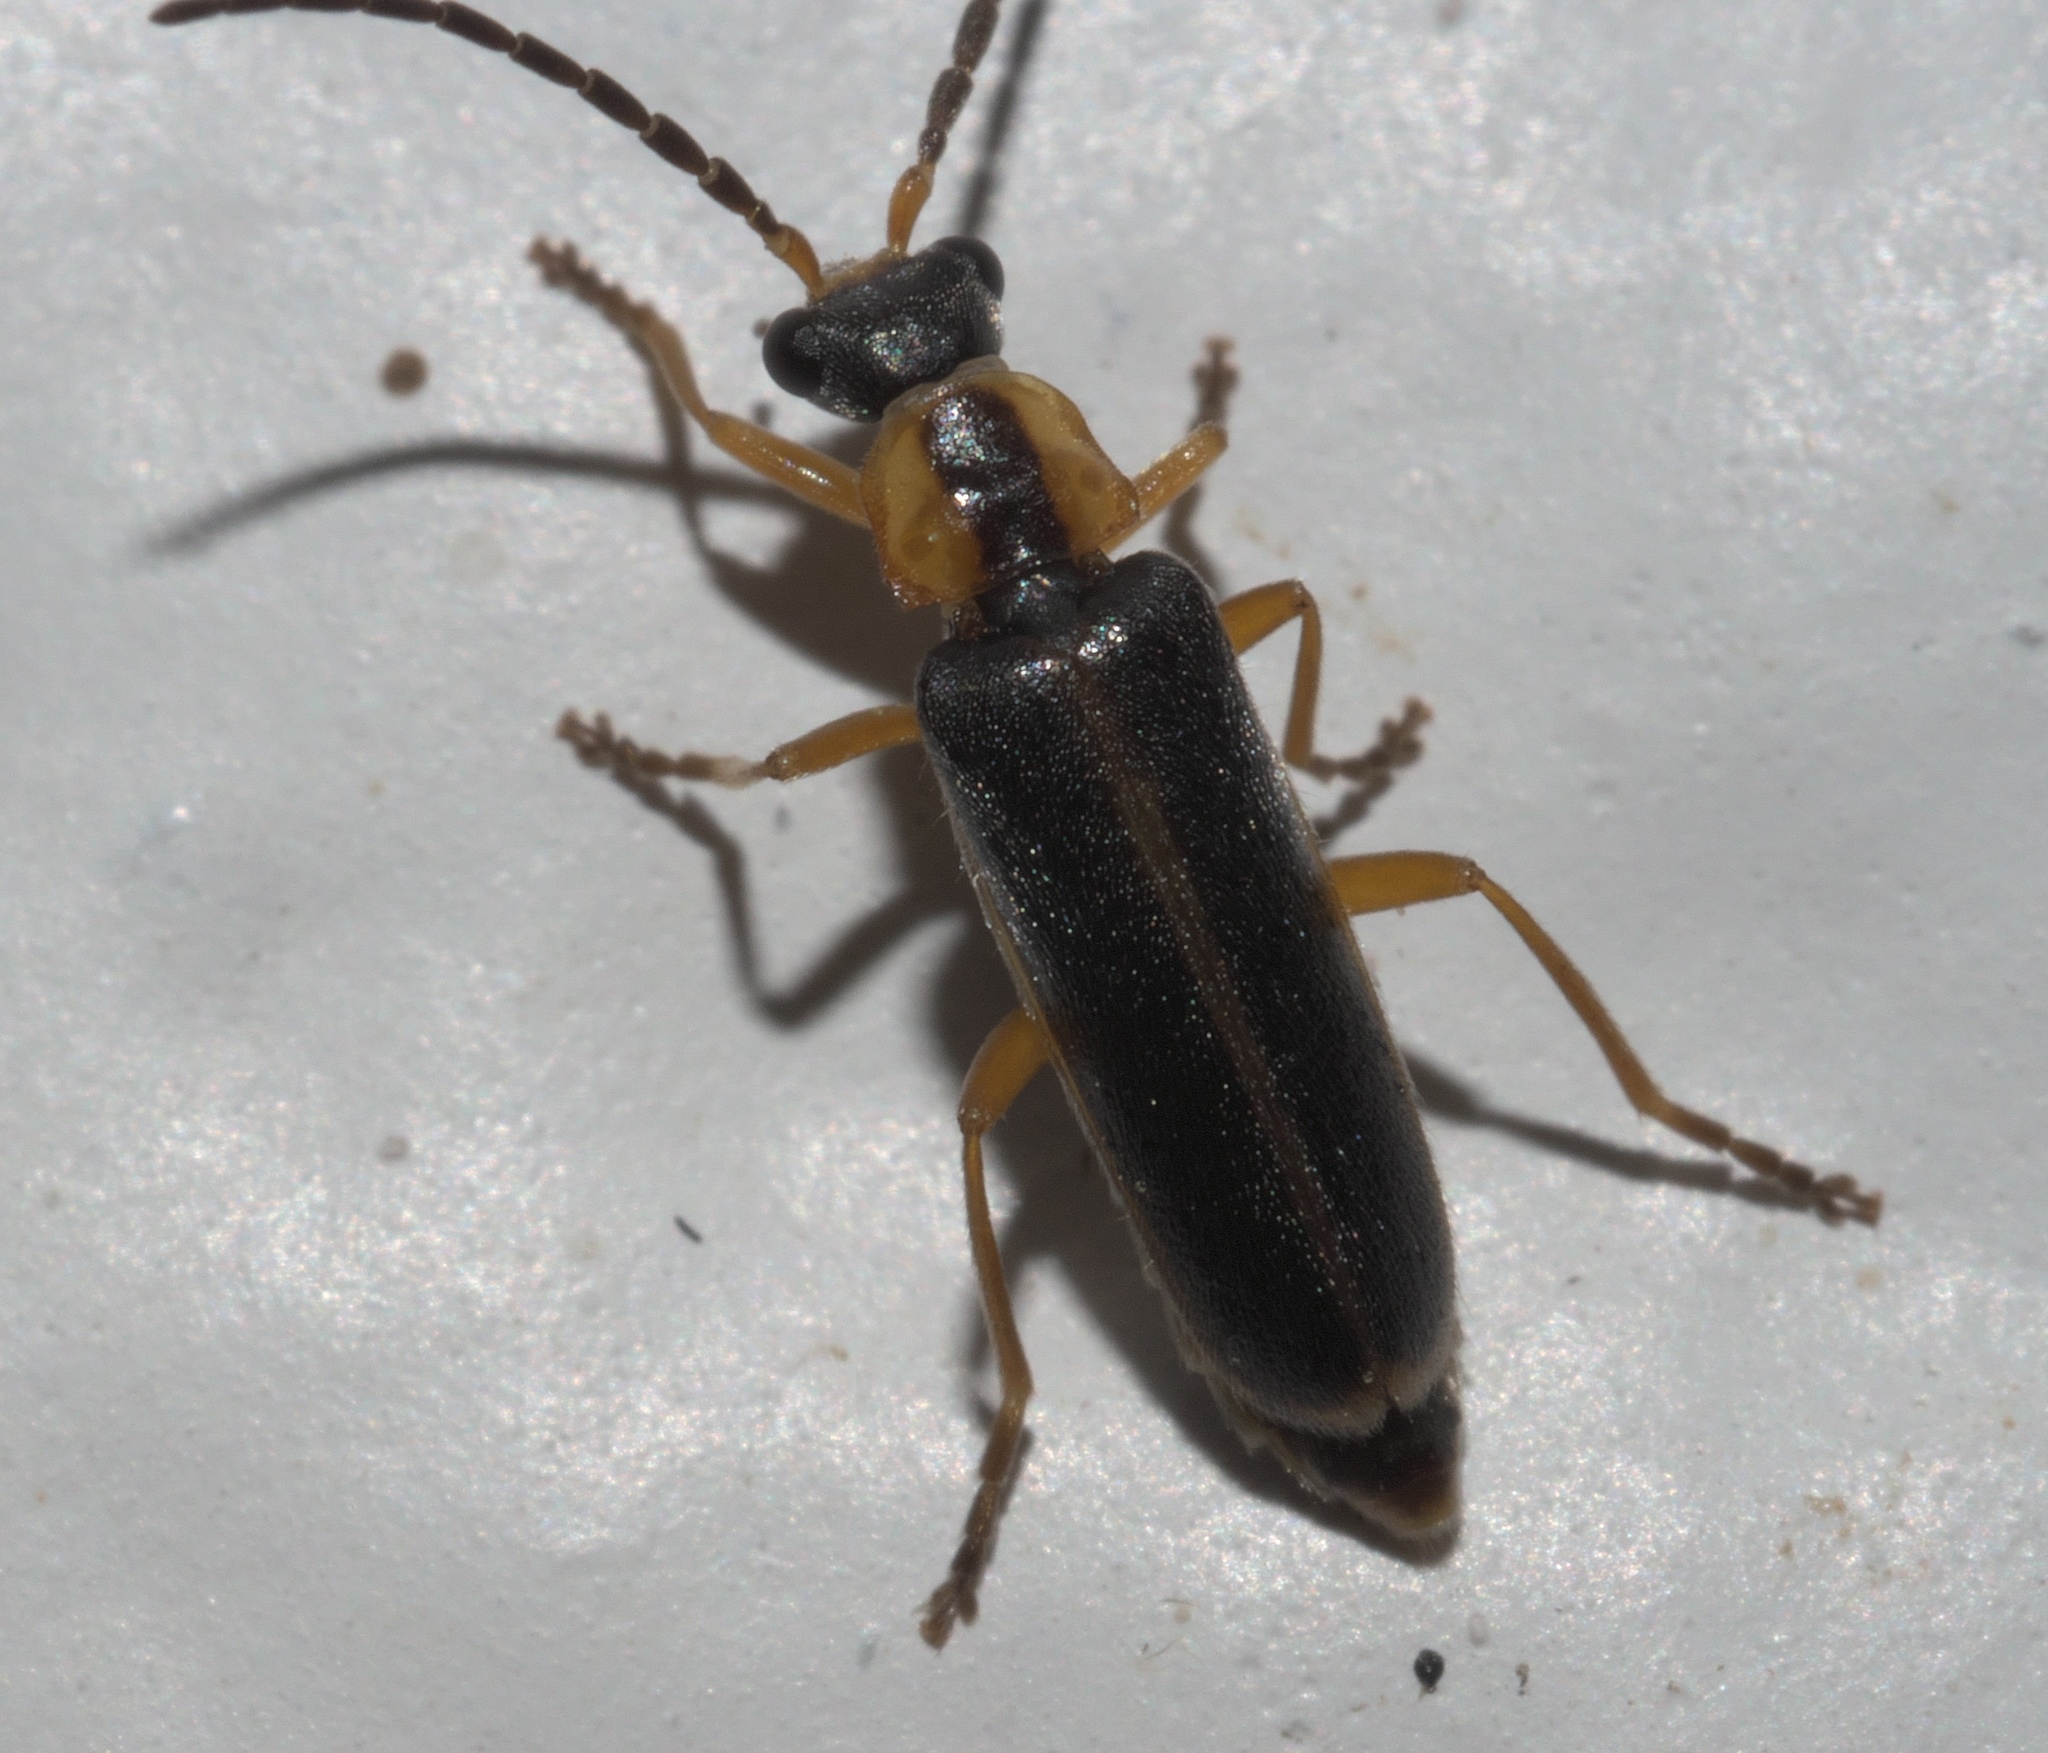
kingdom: Animalia
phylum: Arthropoda
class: Insecta
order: Coleoptera
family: Cantharidae
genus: Rhagonycha
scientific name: Rhagonycha scitula
